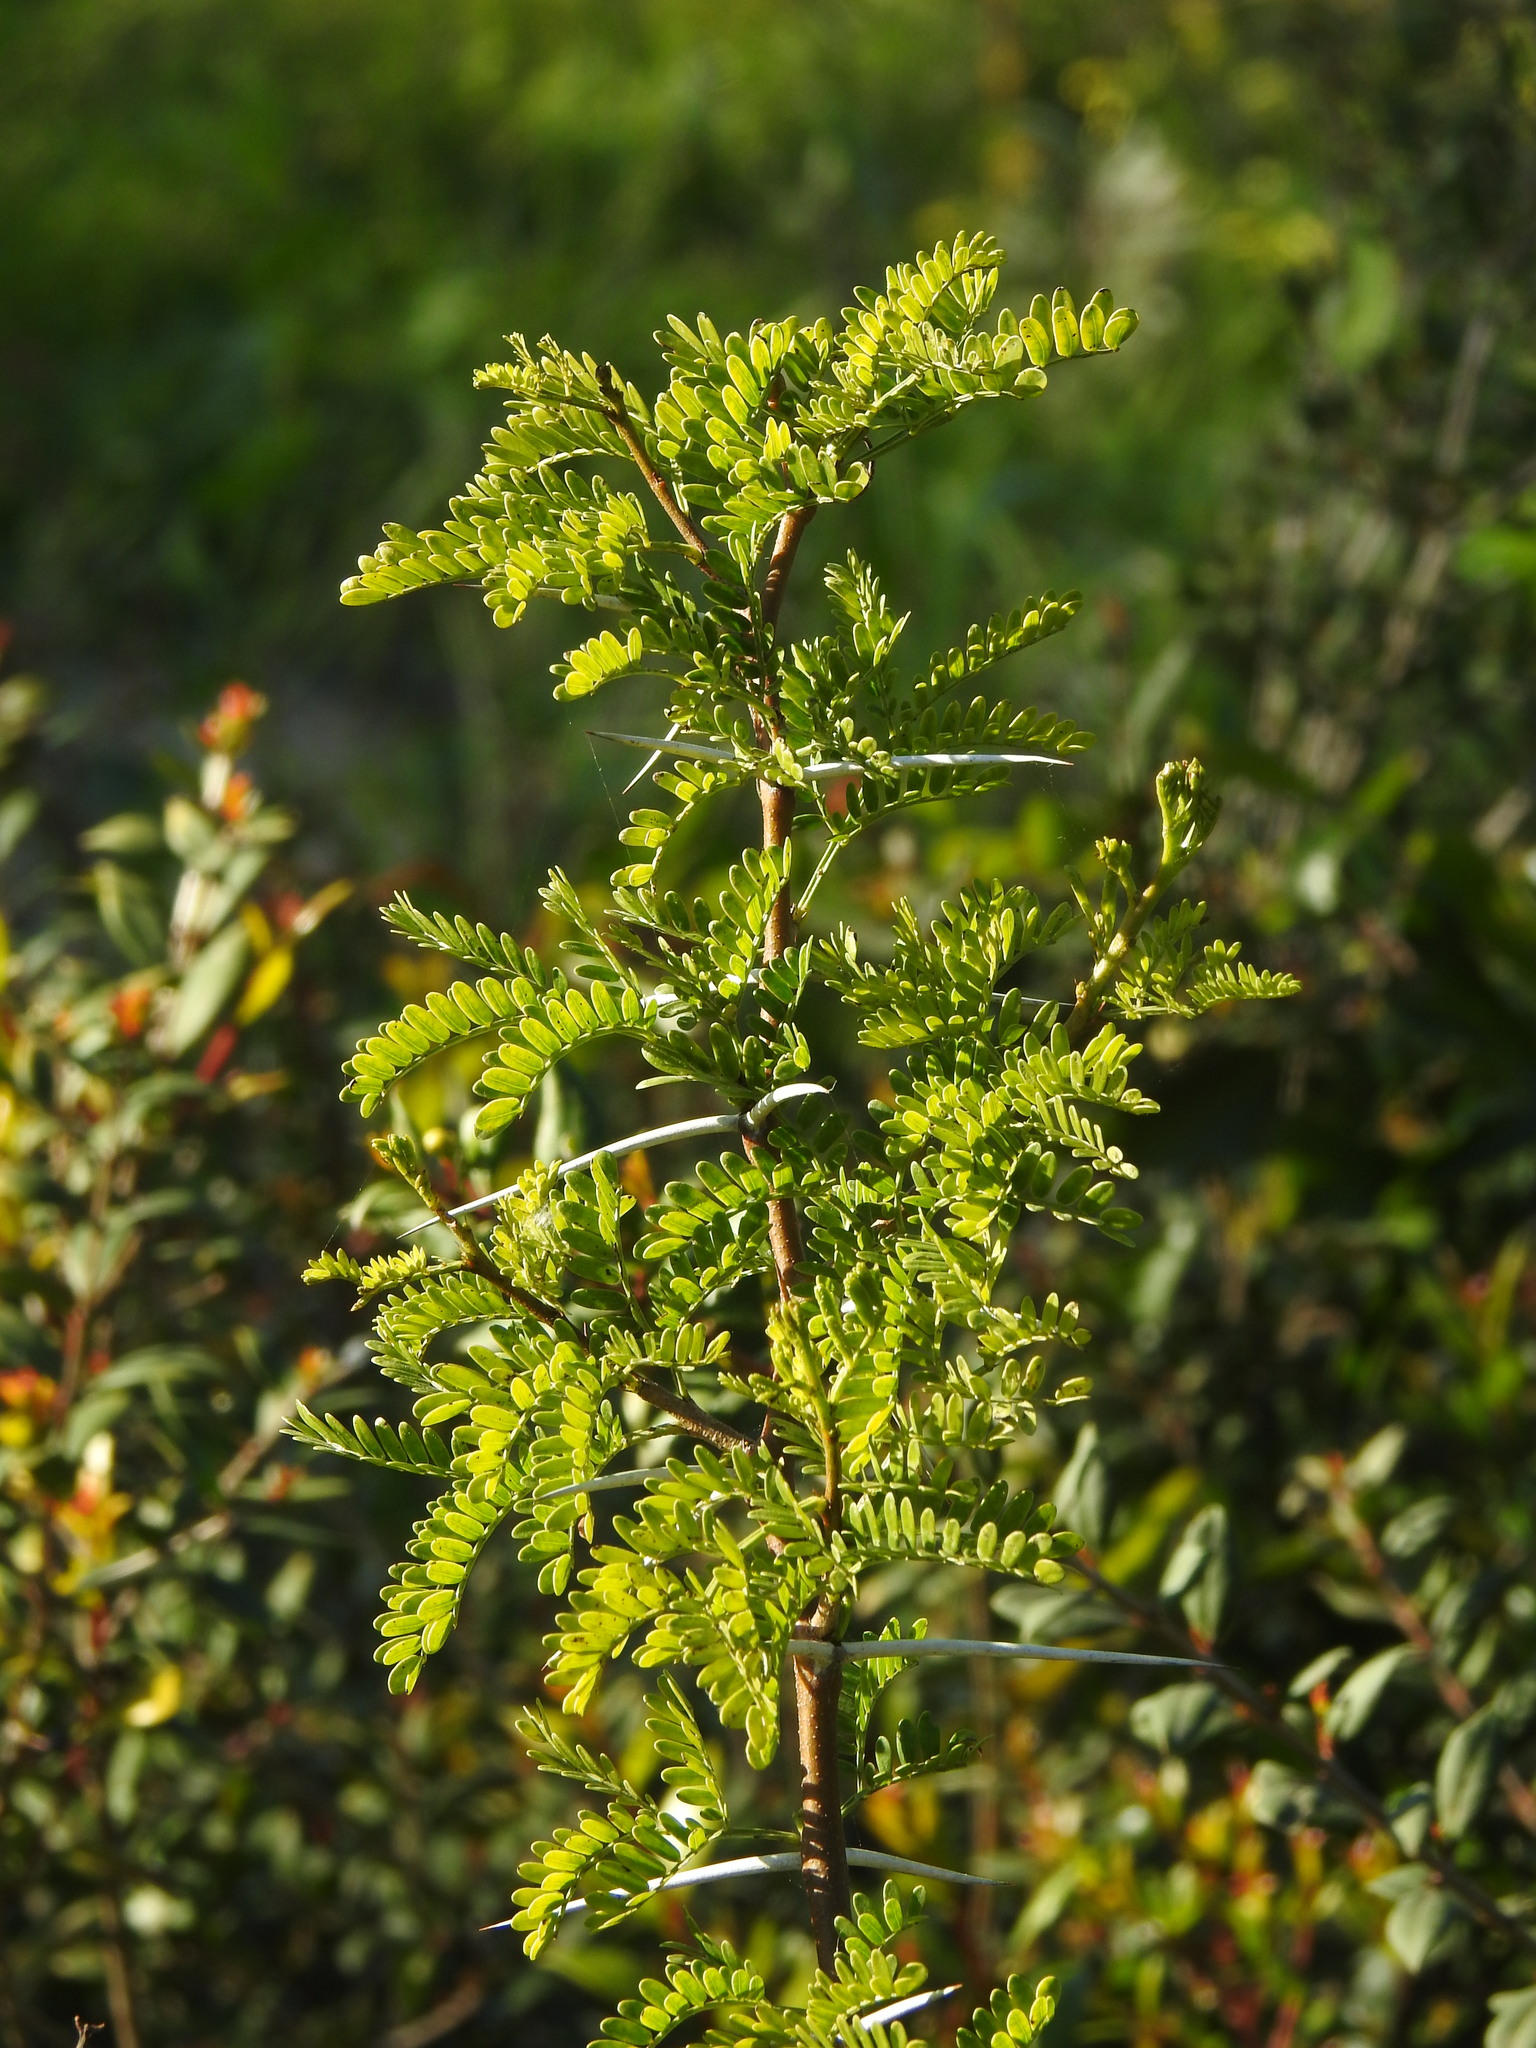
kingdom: Plantae
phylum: Tracheophyta
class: Magnoliopsida
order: Fabales
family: Fabaceae
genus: Vachellia
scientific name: Vachellia karroo
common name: Sweet thorn
